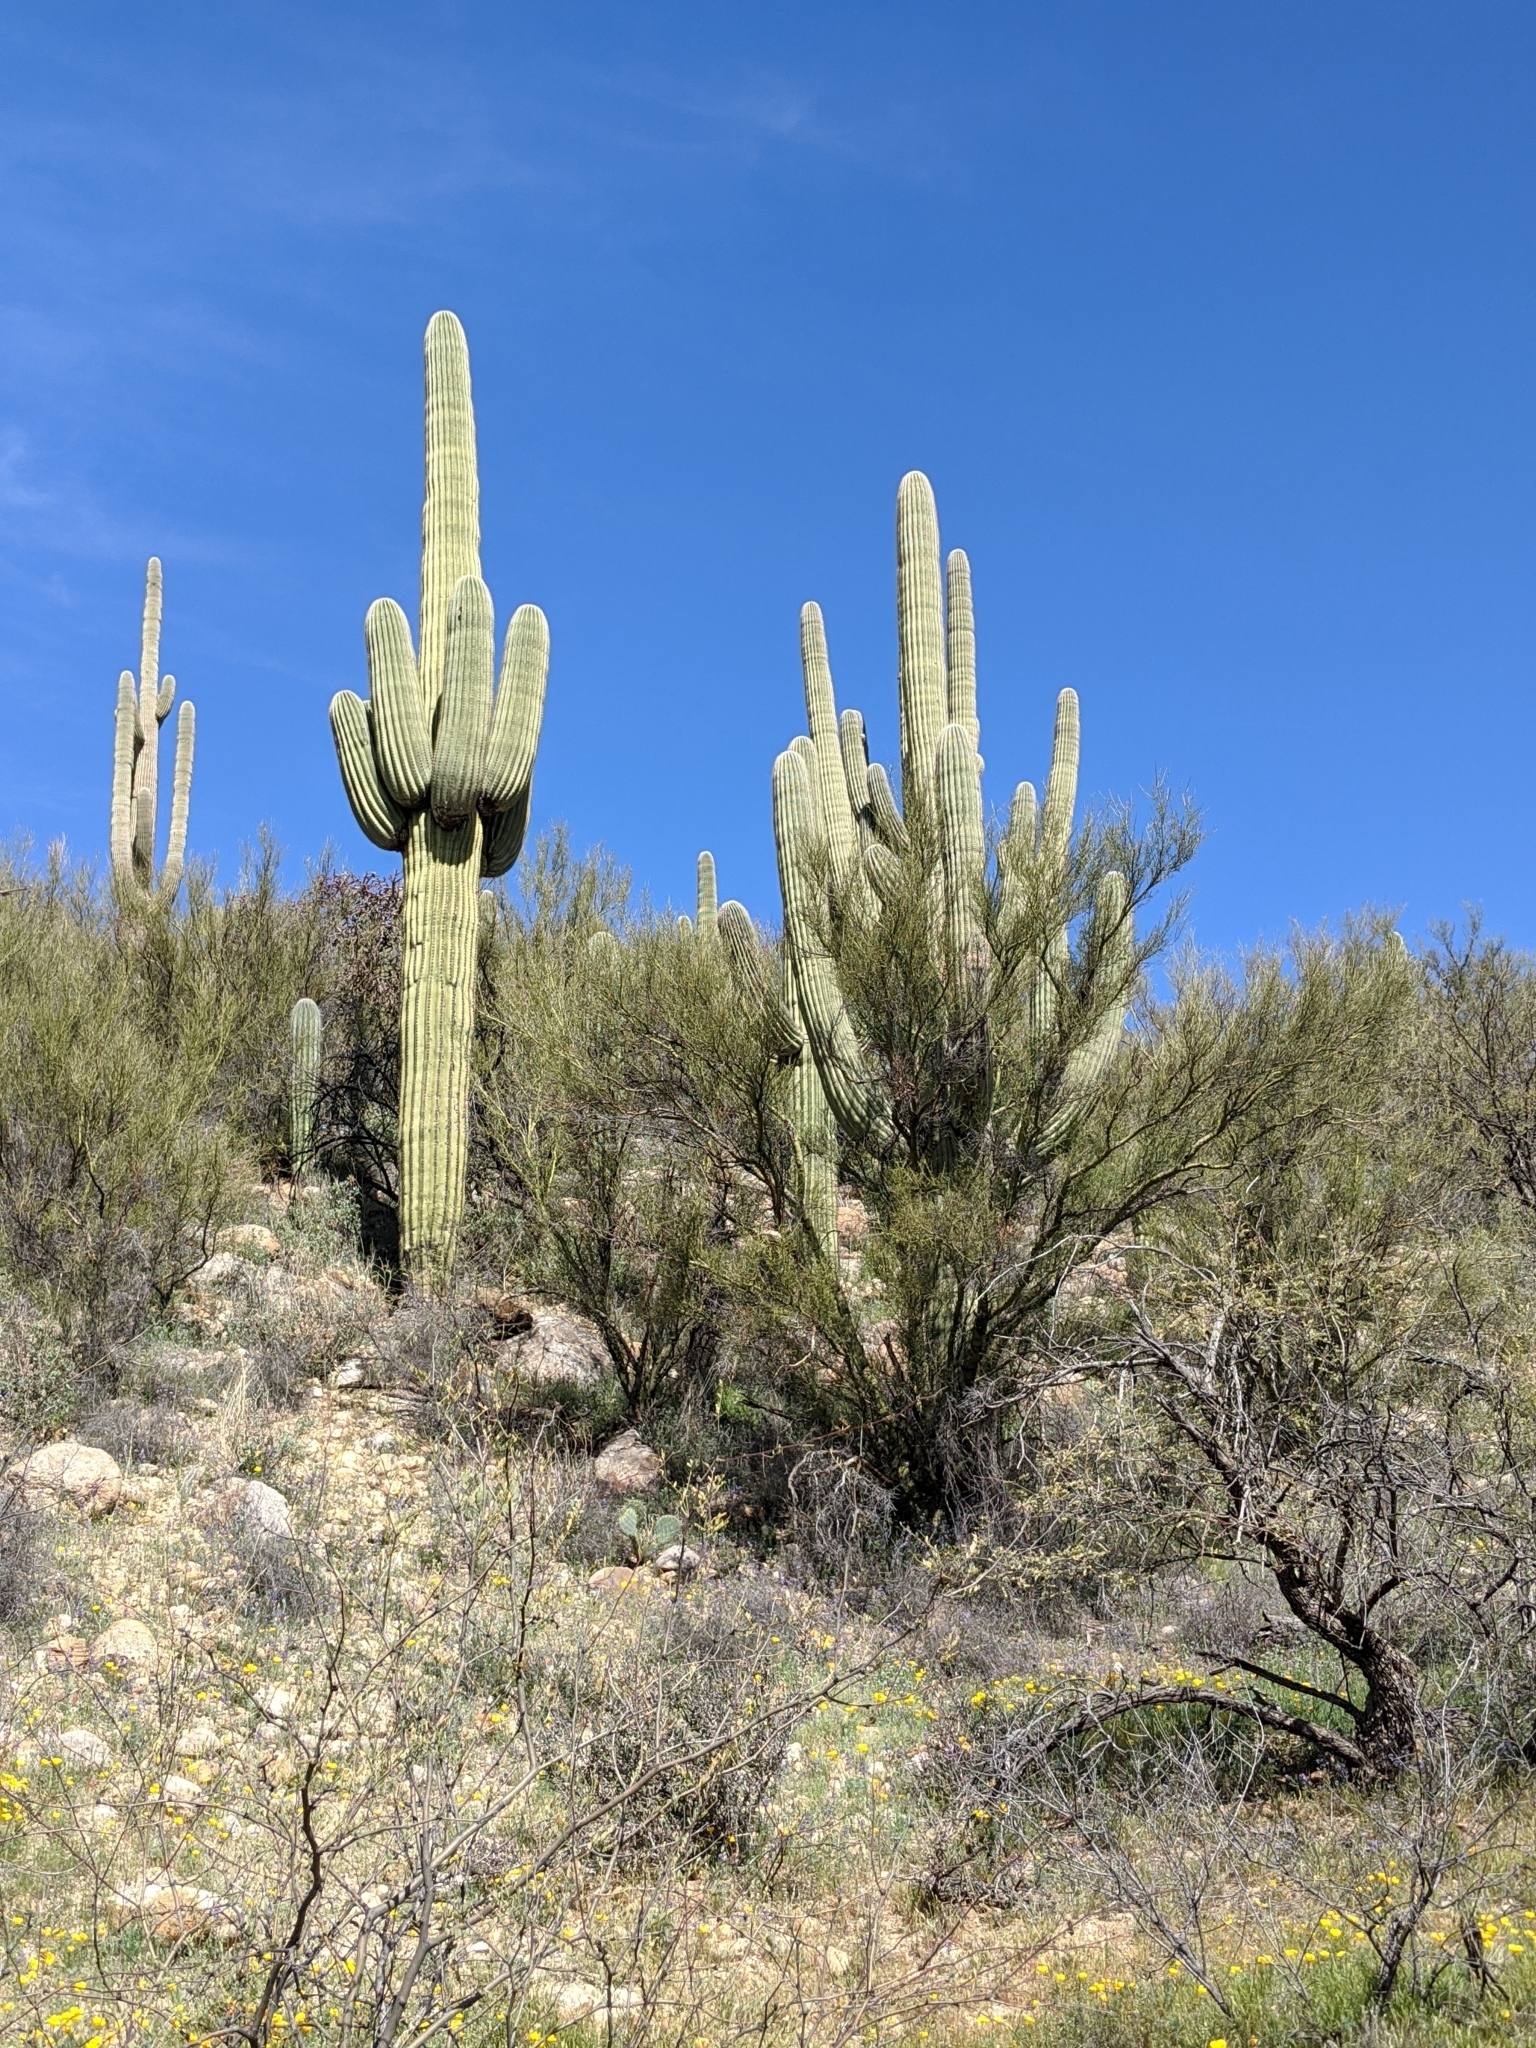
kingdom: Plantae
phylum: Tracheophyta
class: Magnoliopsida
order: Caryophyllales
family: Cactaceae
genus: Carnegiea
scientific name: Carnegiea gigantea
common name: Saguaro
